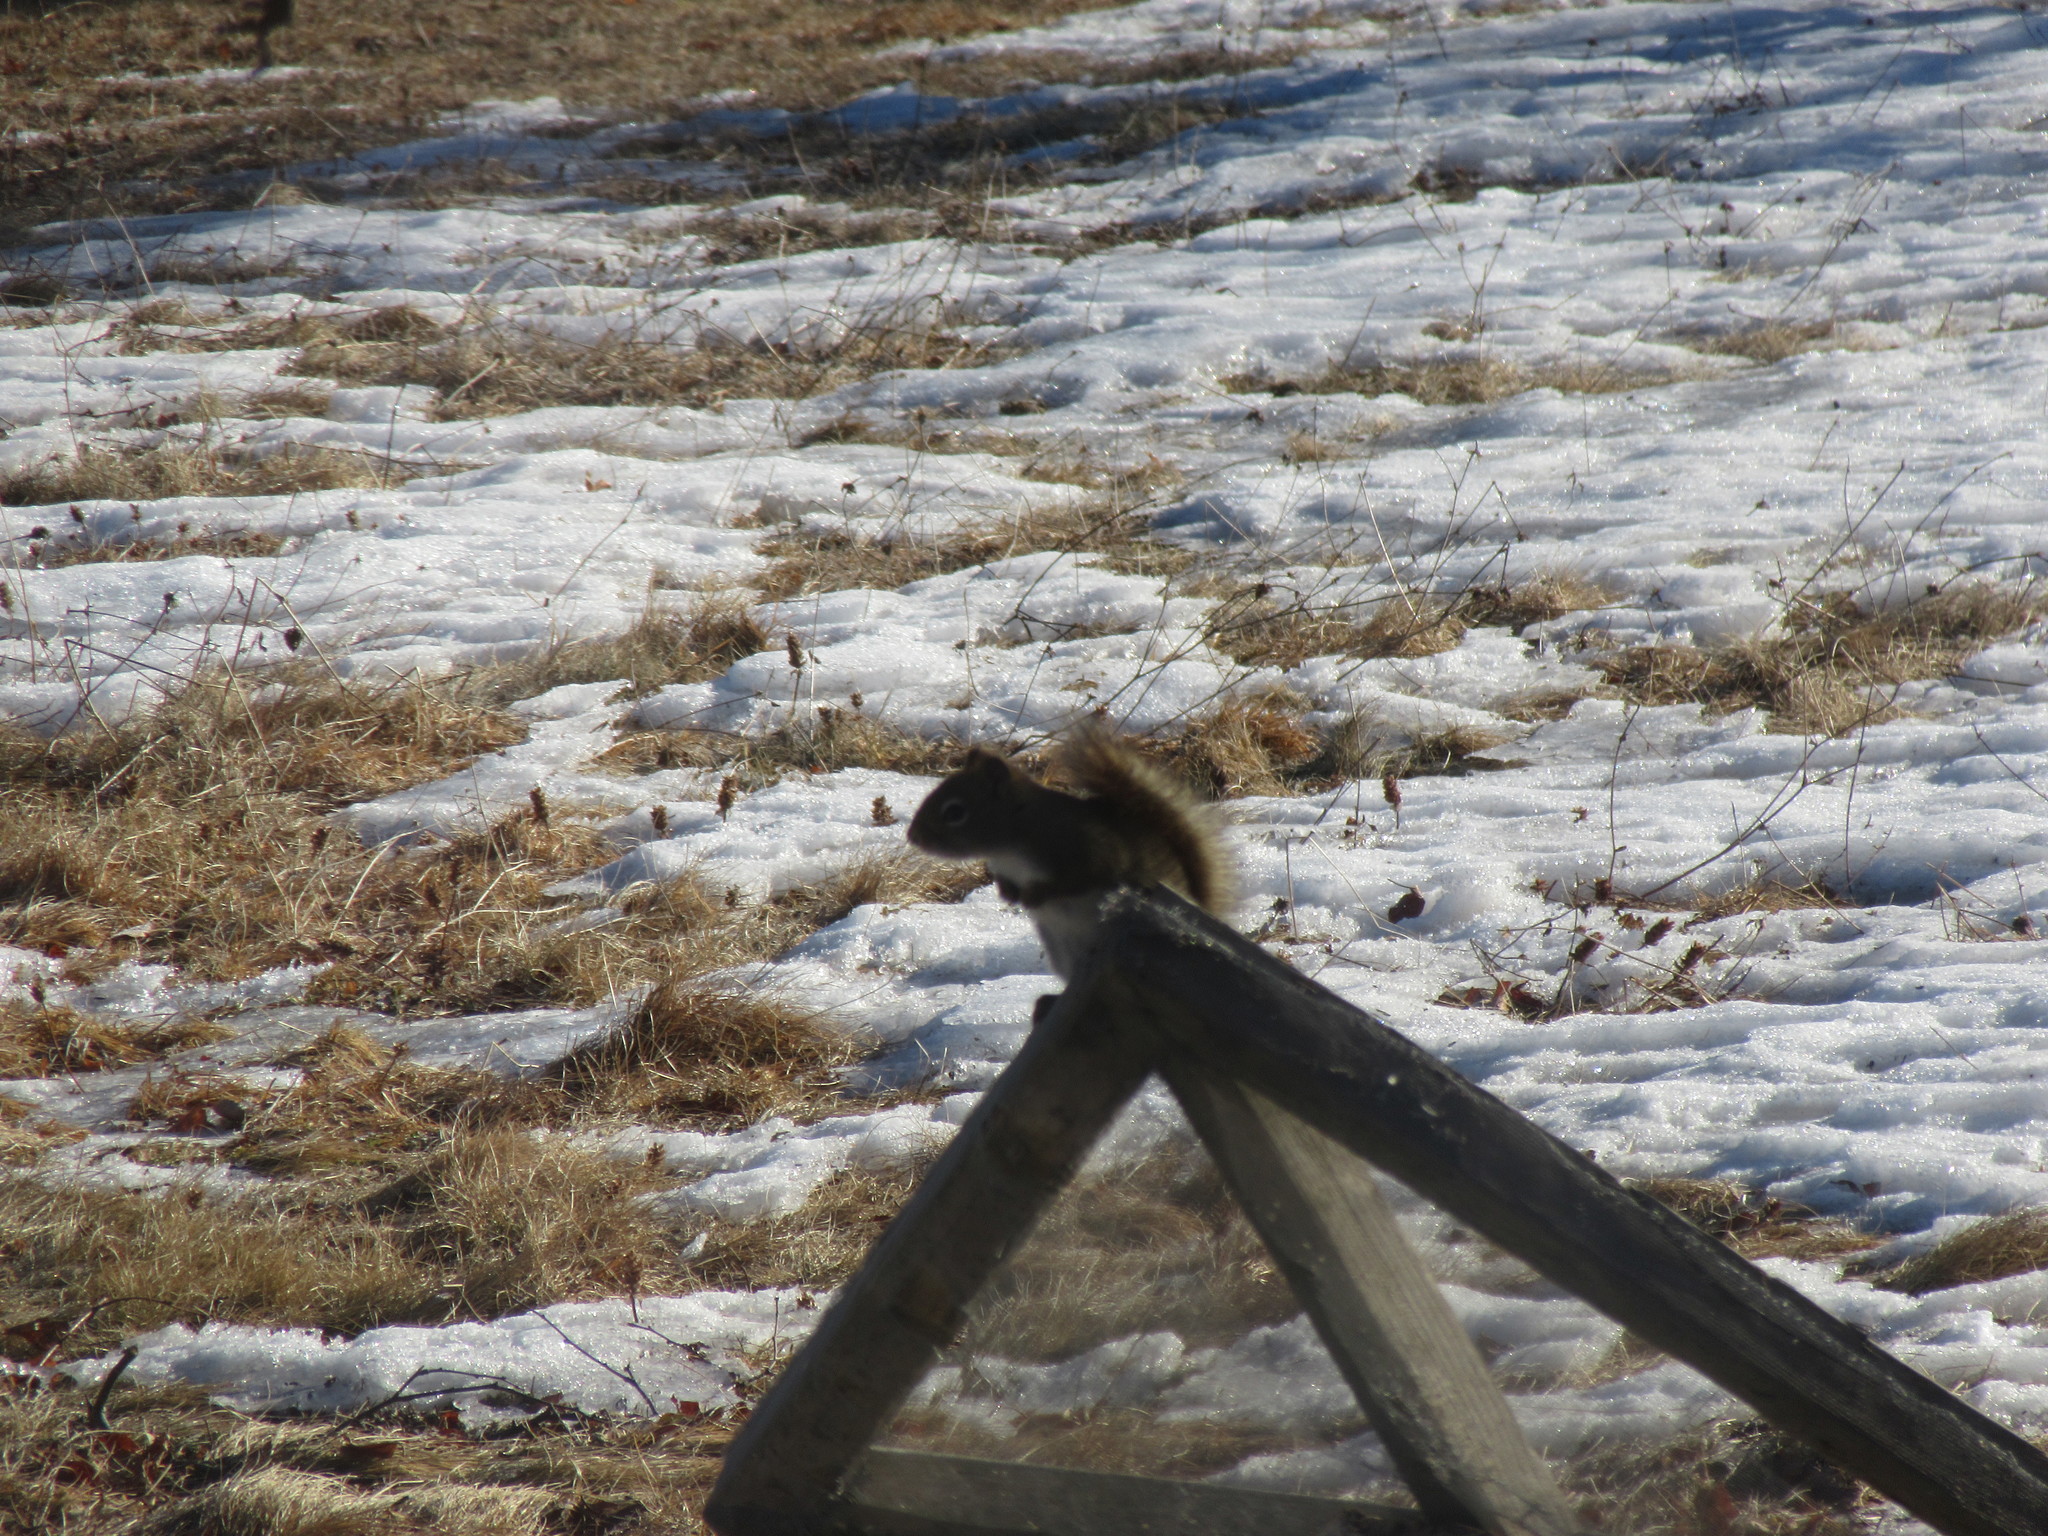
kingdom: Animalia
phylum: Chordata
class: Mammalia
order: Rodentia
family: Sciuridae
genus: Tamiasciurus
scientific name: Tamiasciurus hudsonicus
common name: Red squirrel
